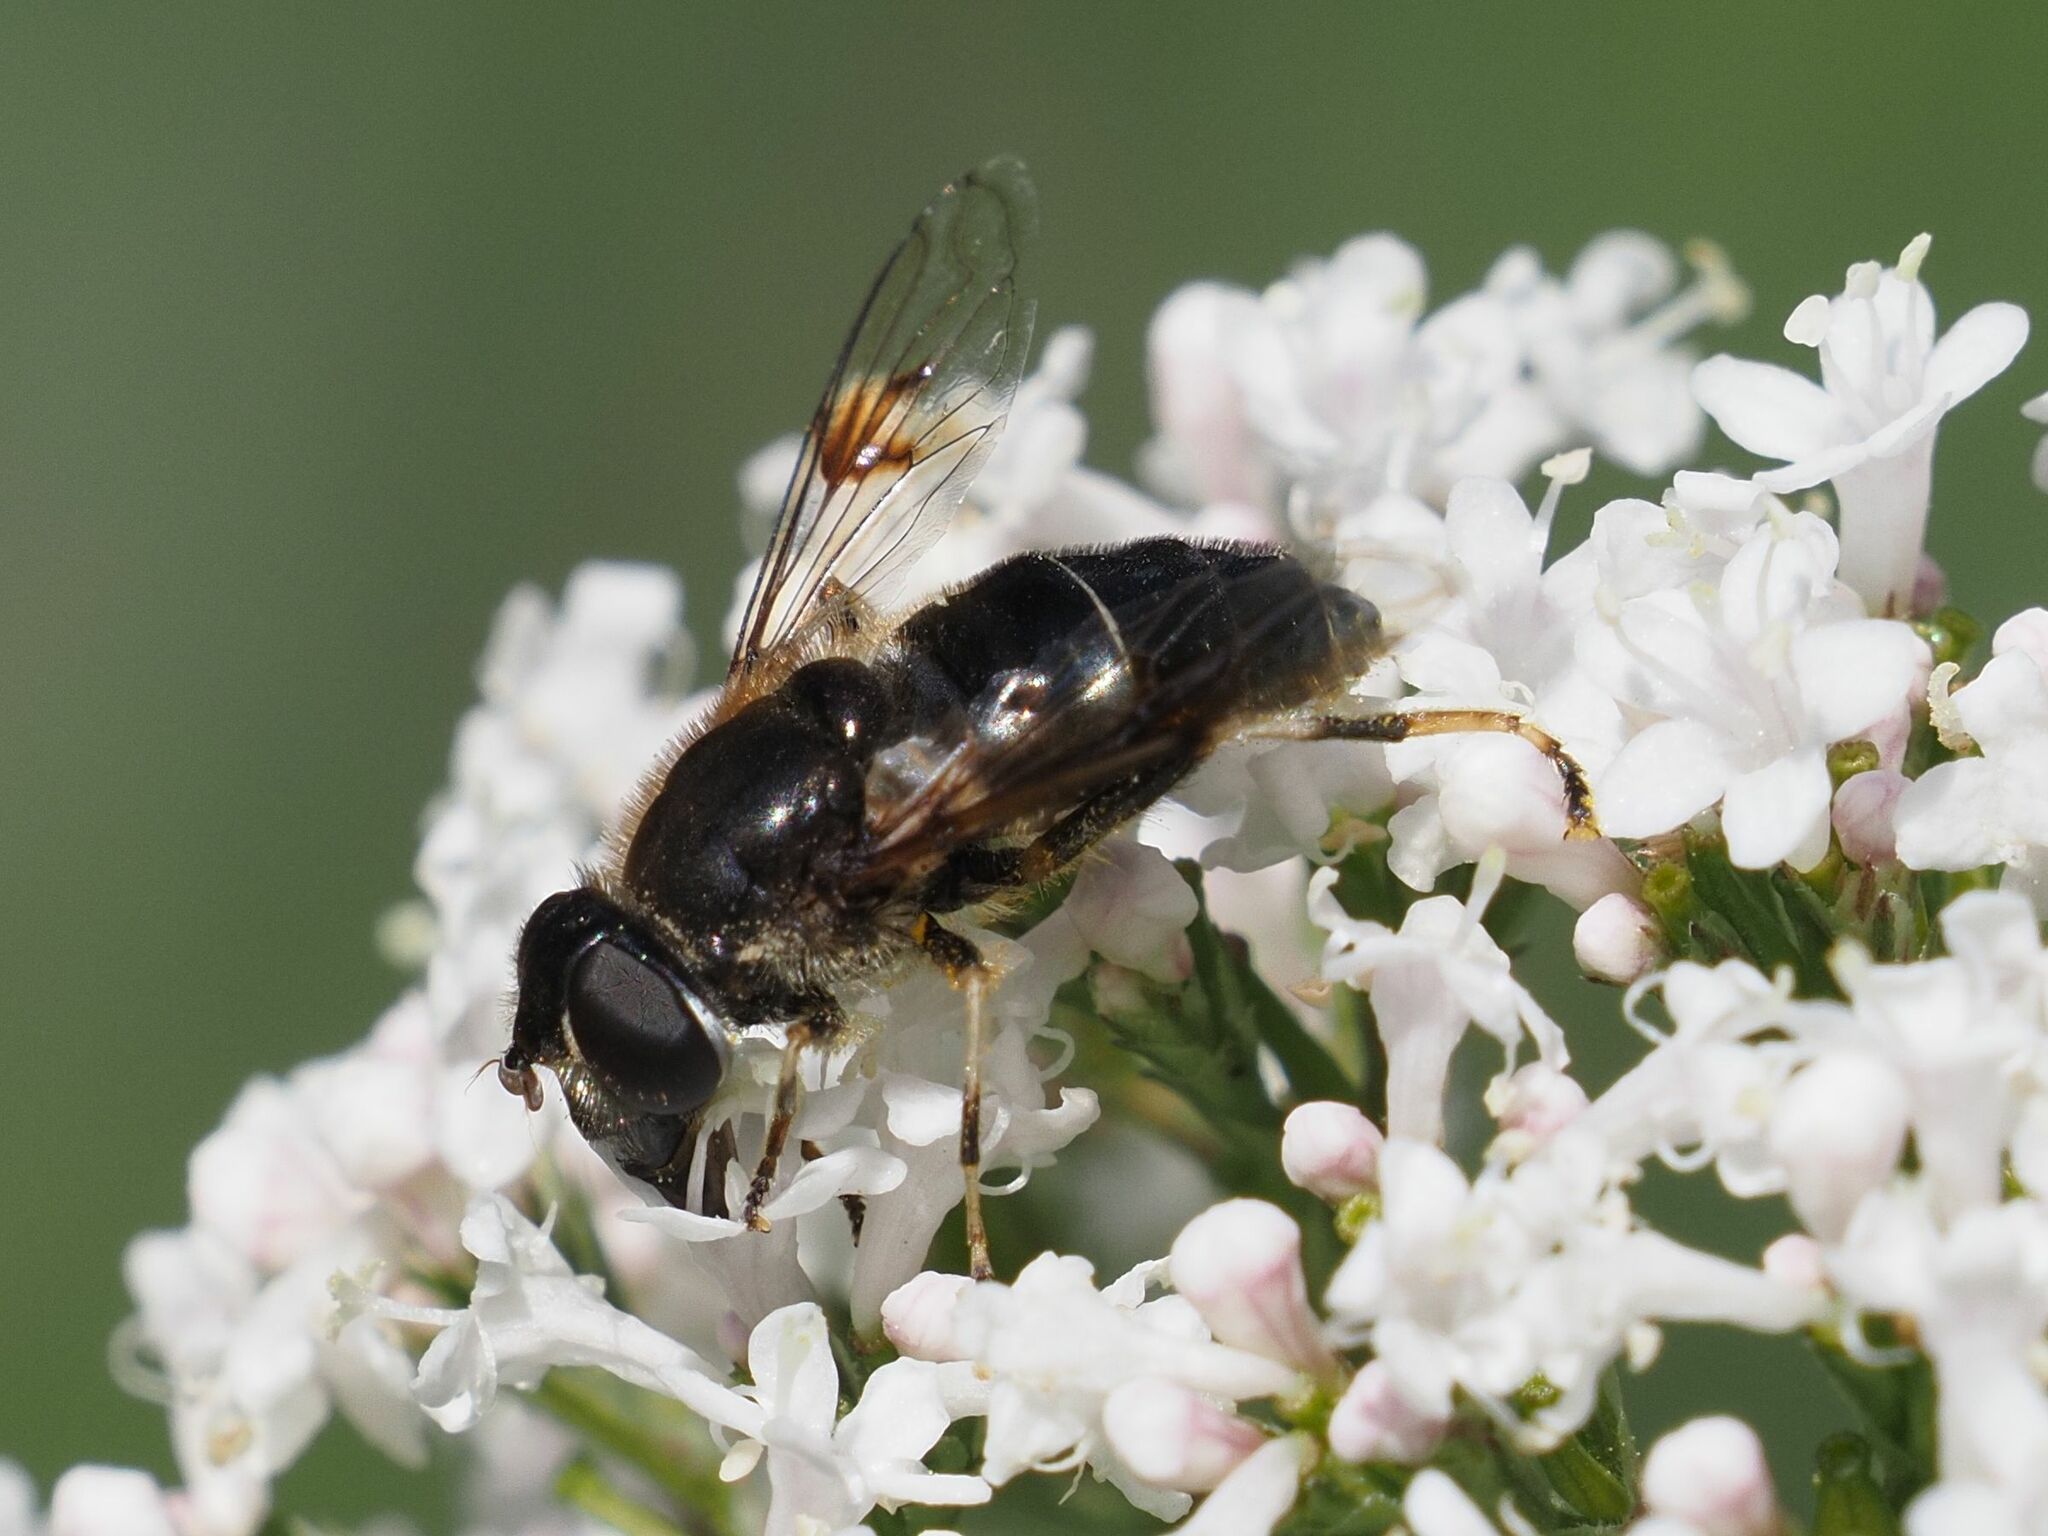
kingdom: Animalia
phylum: Arthropoda
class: Insecta
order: Diptera
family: Syrphidae
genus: Eristalis
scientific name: Eristalis rupium
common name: Hover fly
